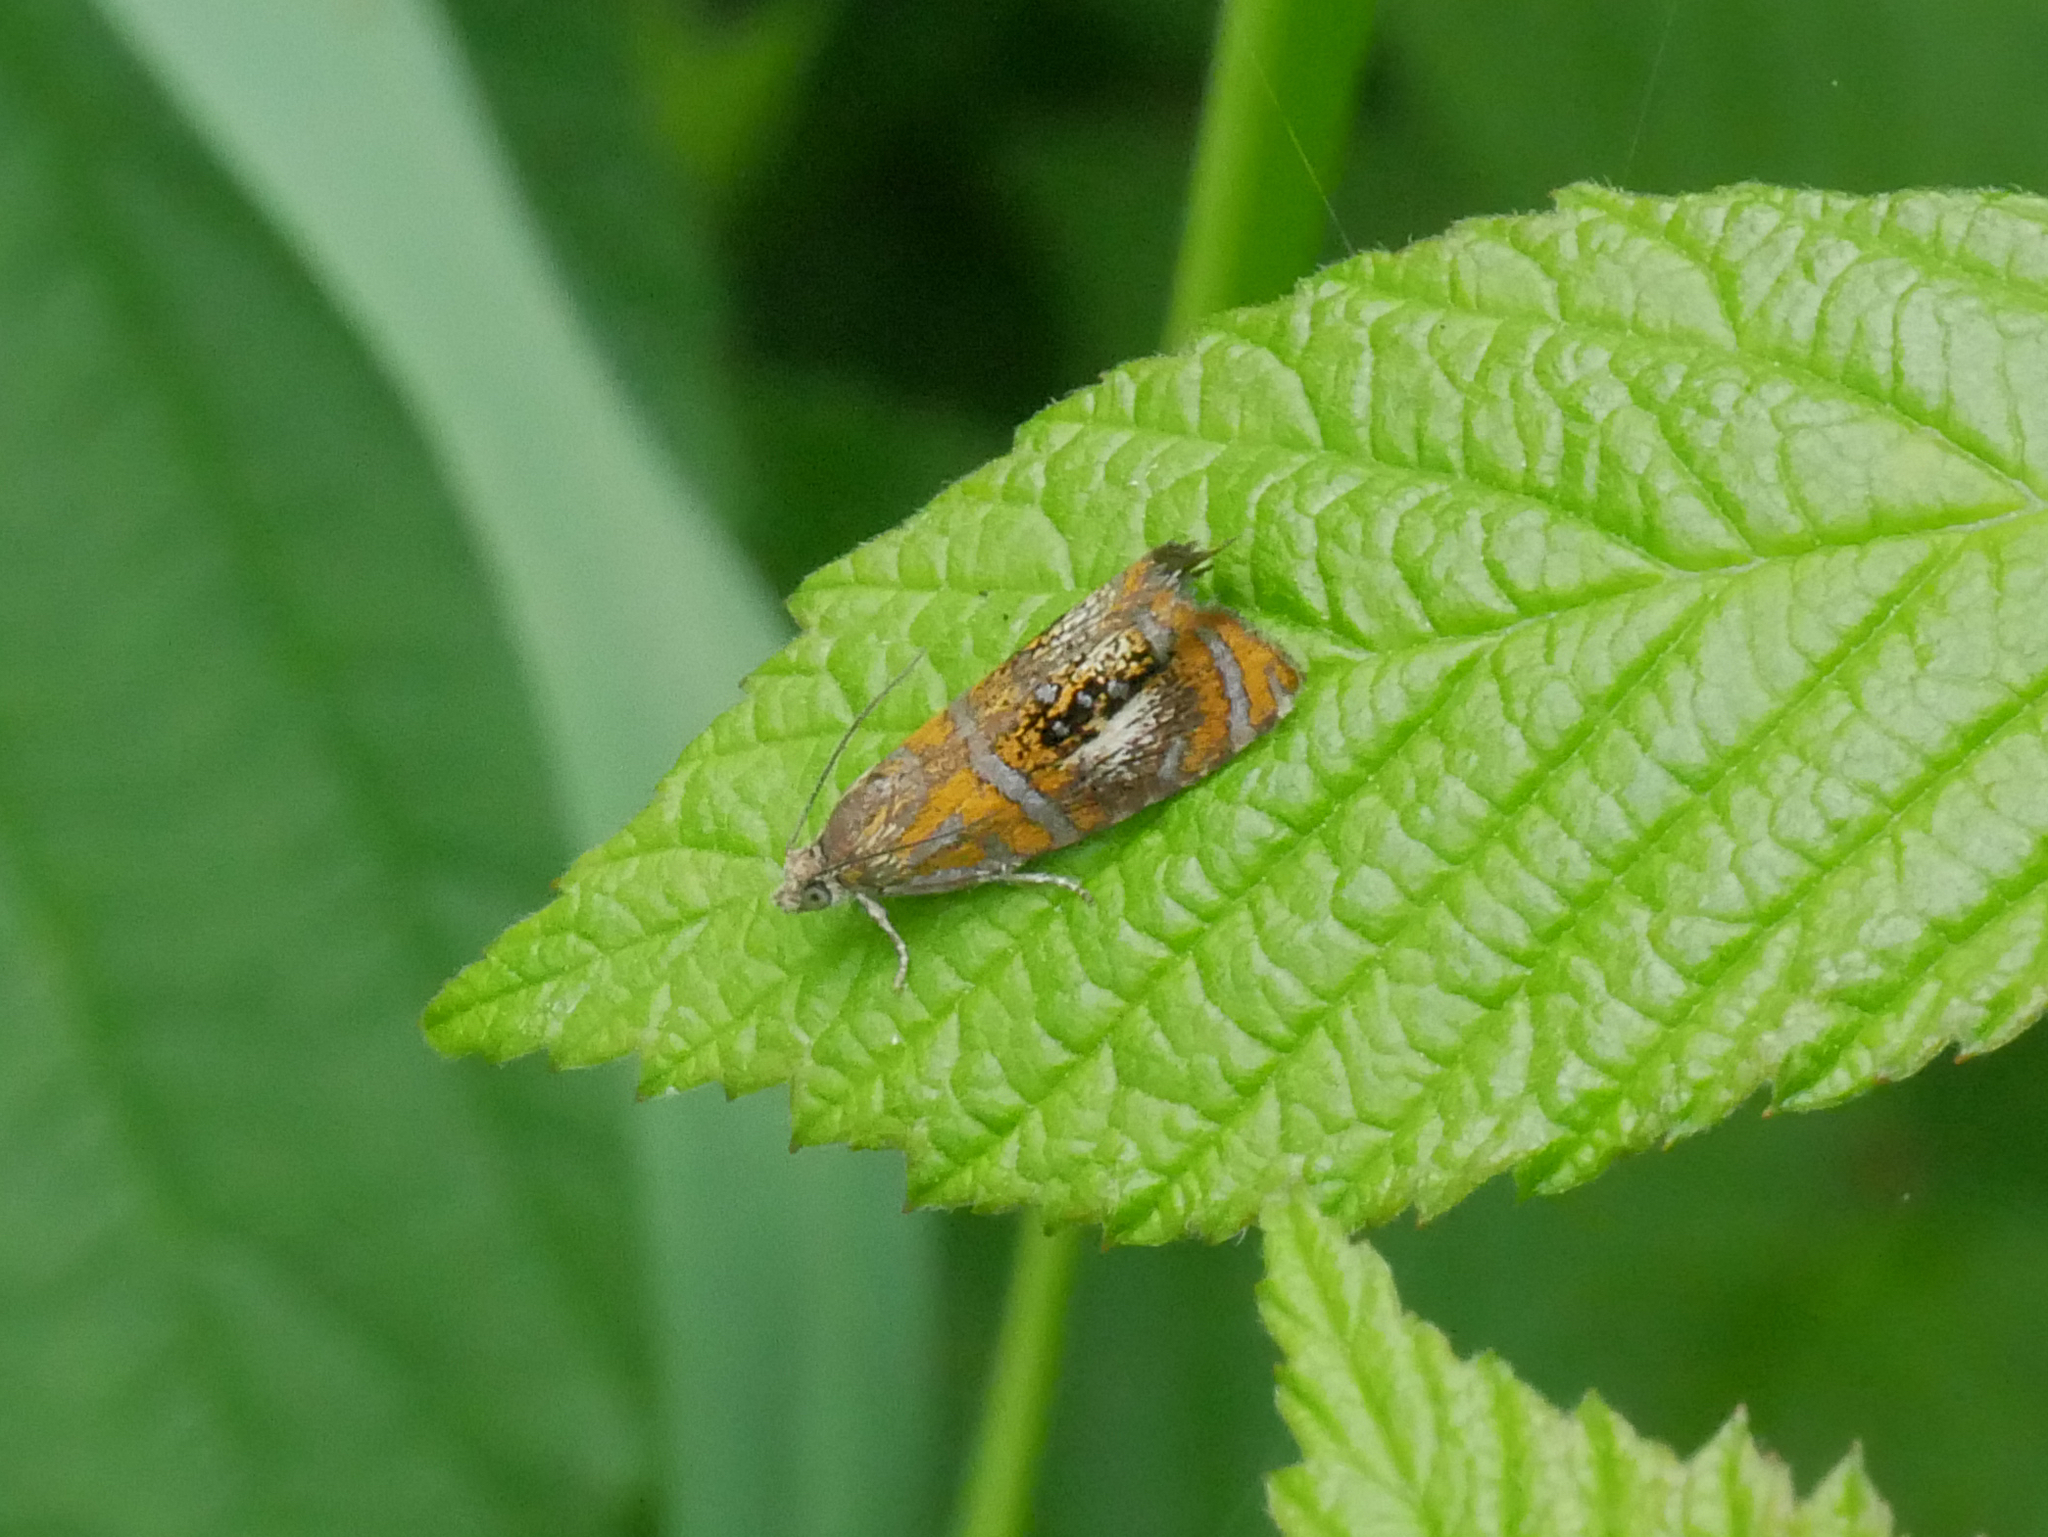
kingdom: Animalia
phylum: Arthropoda
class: Insecta
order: Lepidoptera
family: Tortricidae
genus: Olethreutes
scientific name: Olethreutes arcuella
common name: Arched marble
